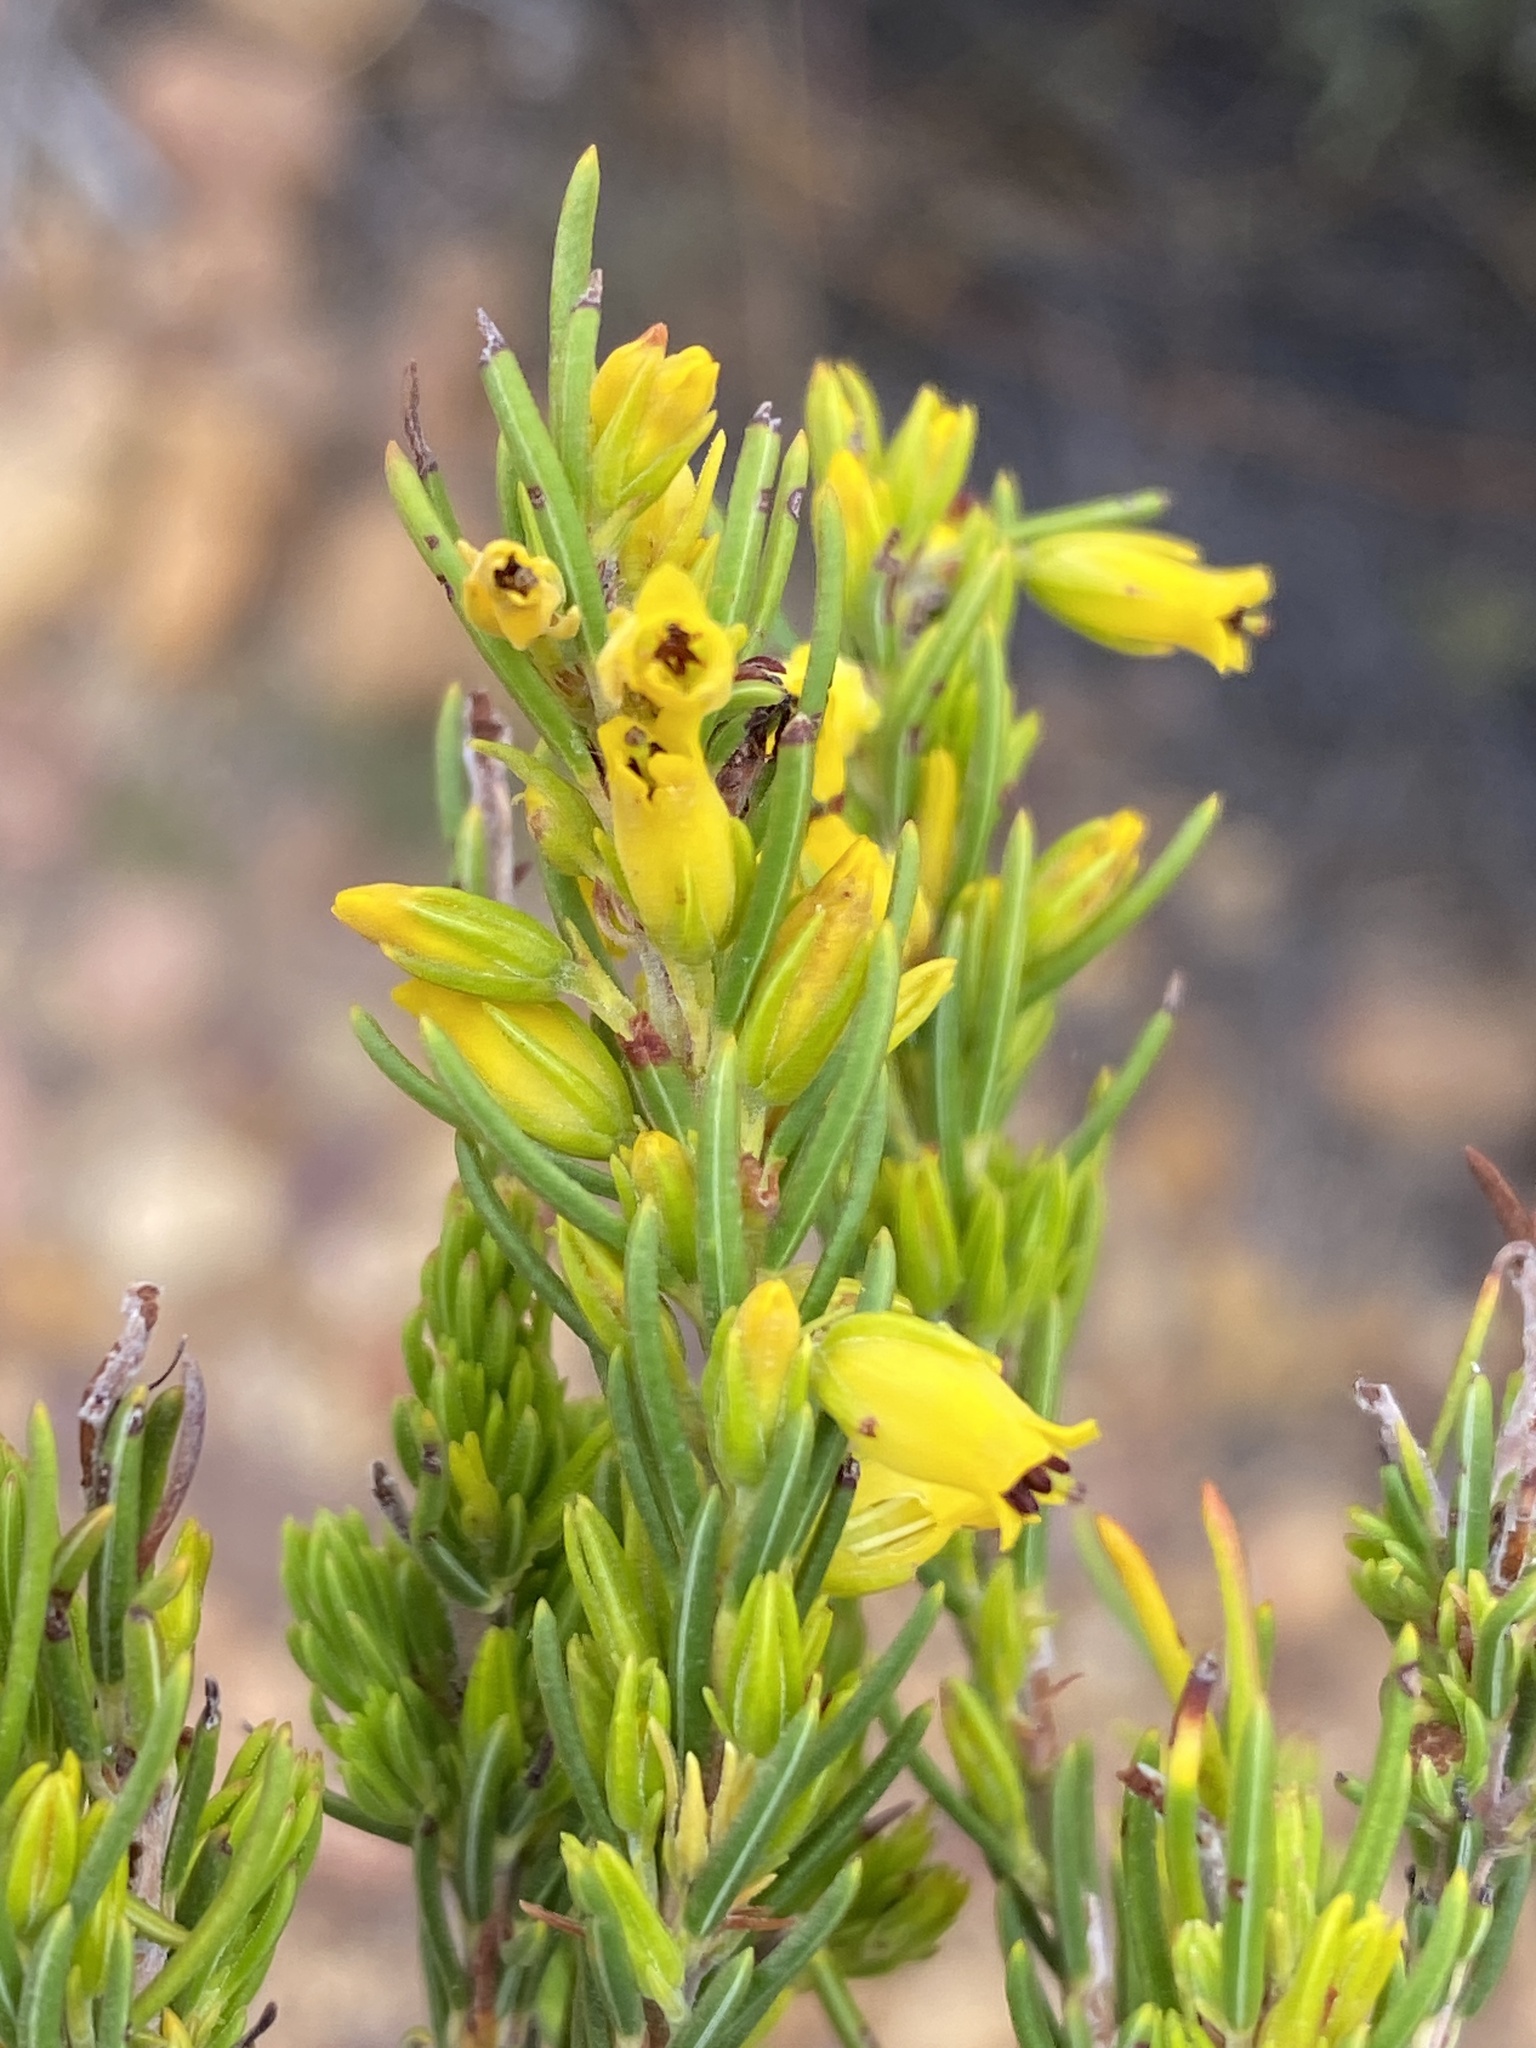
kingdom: Plantae
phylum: Tracheophyta
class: Magnoliopsida
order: Ericales
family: Ericaceae
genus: Erica
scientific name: Erica parilis
